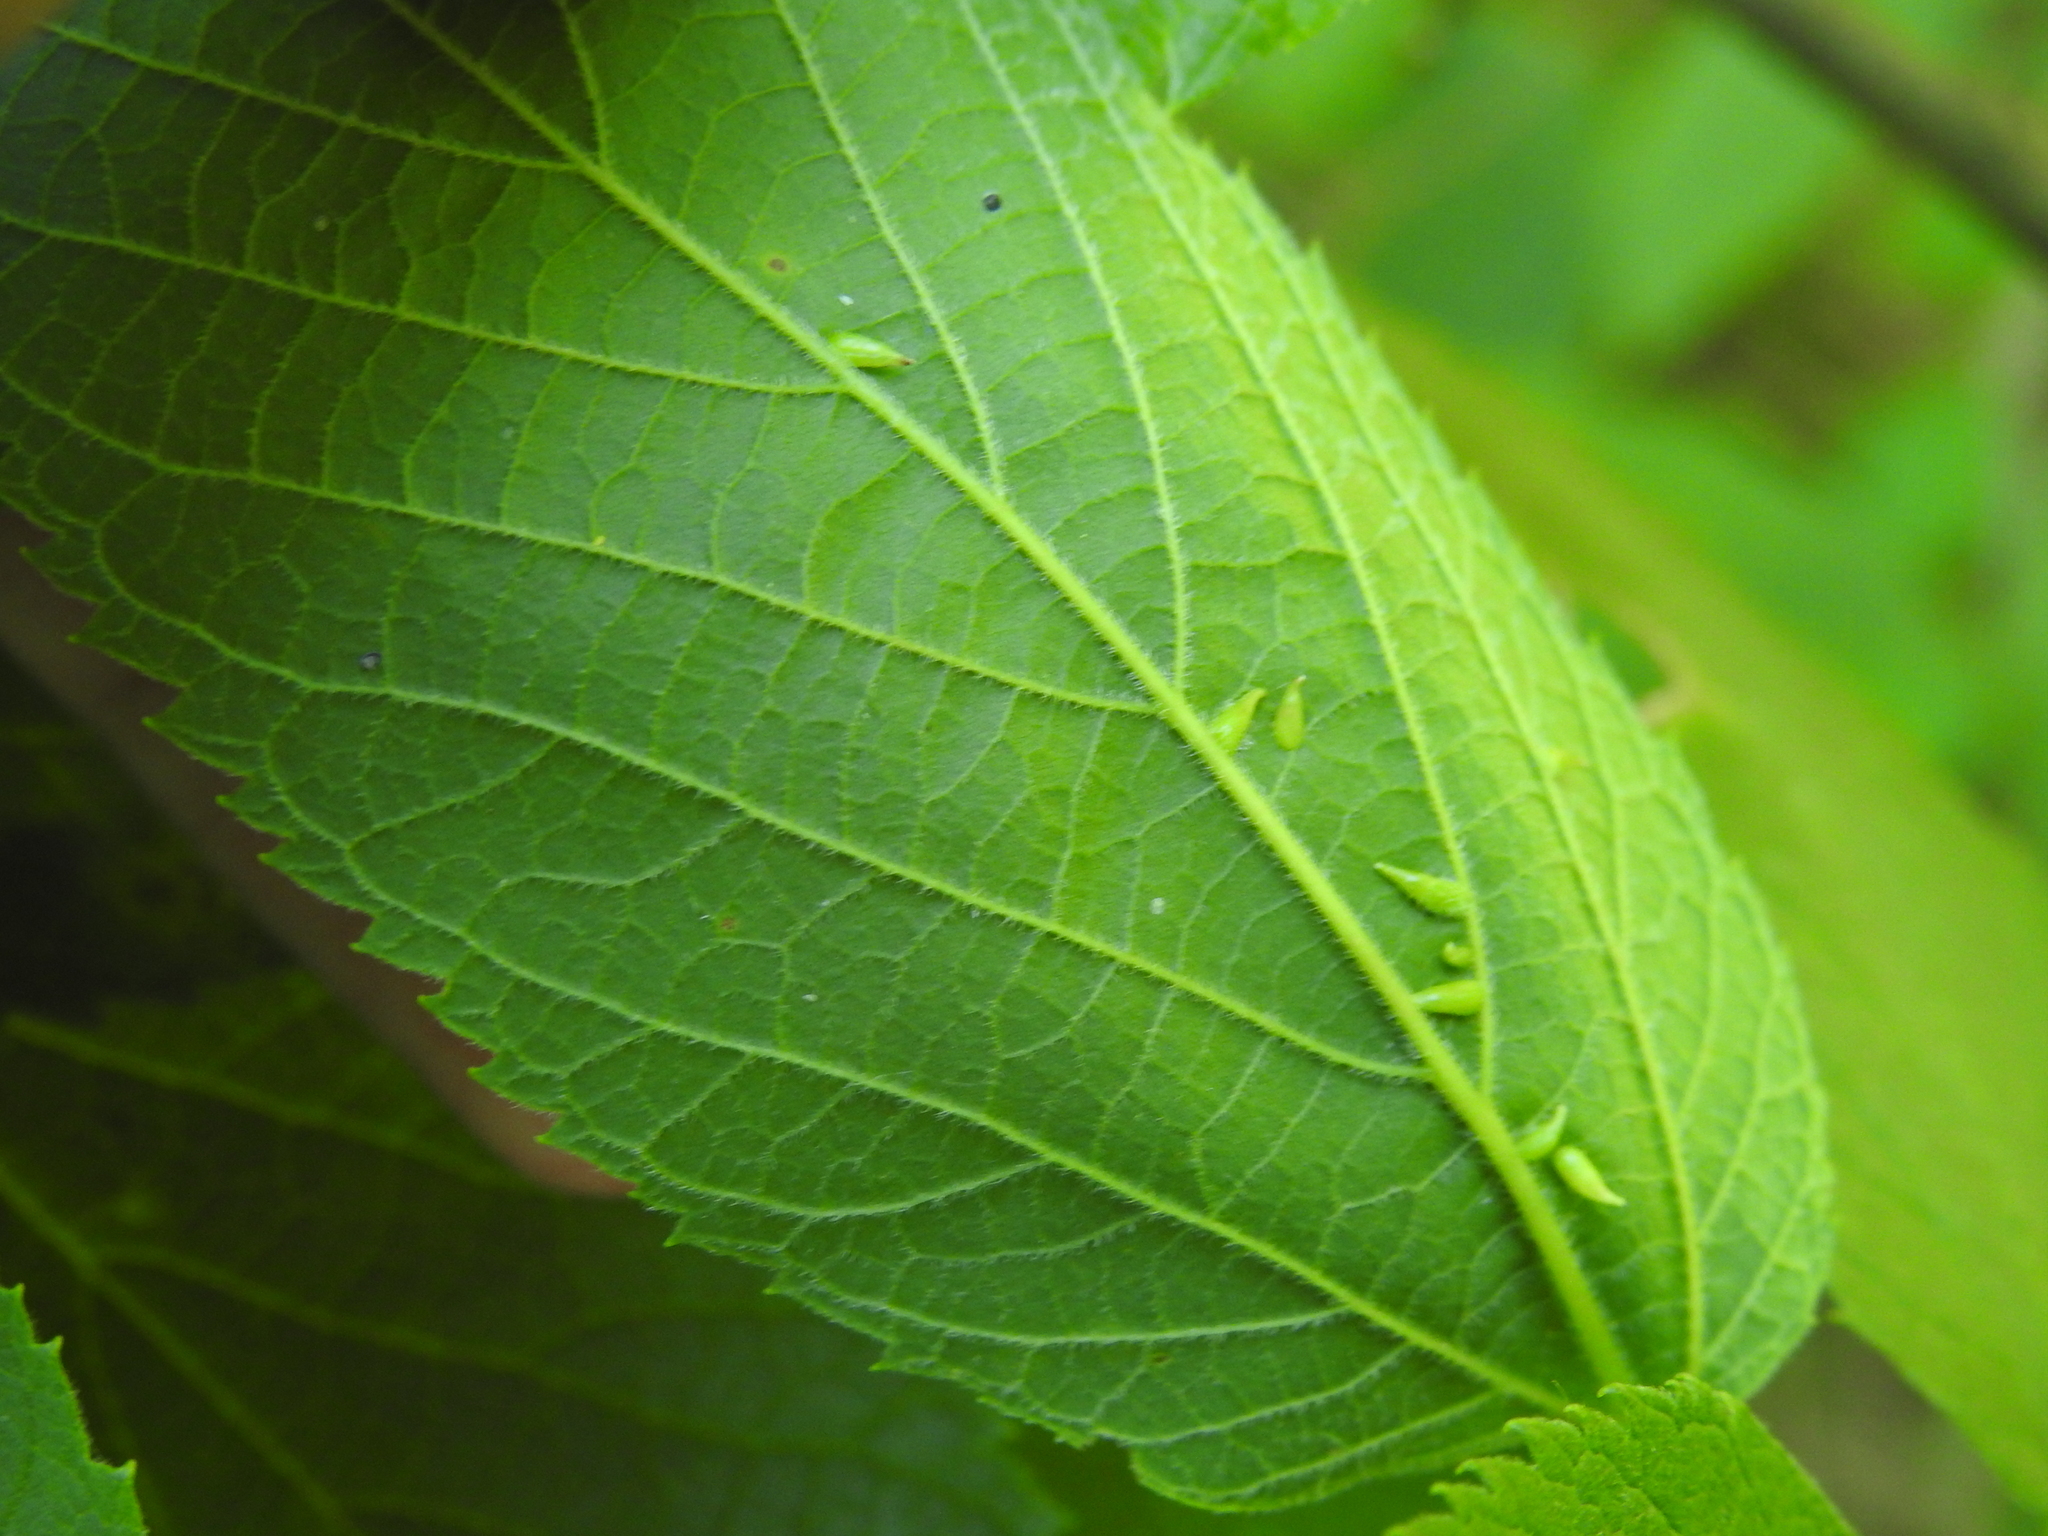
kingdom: Animalia
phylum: Arthropoda
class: Insecta
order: Diptera
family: Cecidomyiidae
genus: Celticecis
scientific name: Celticecis supina
